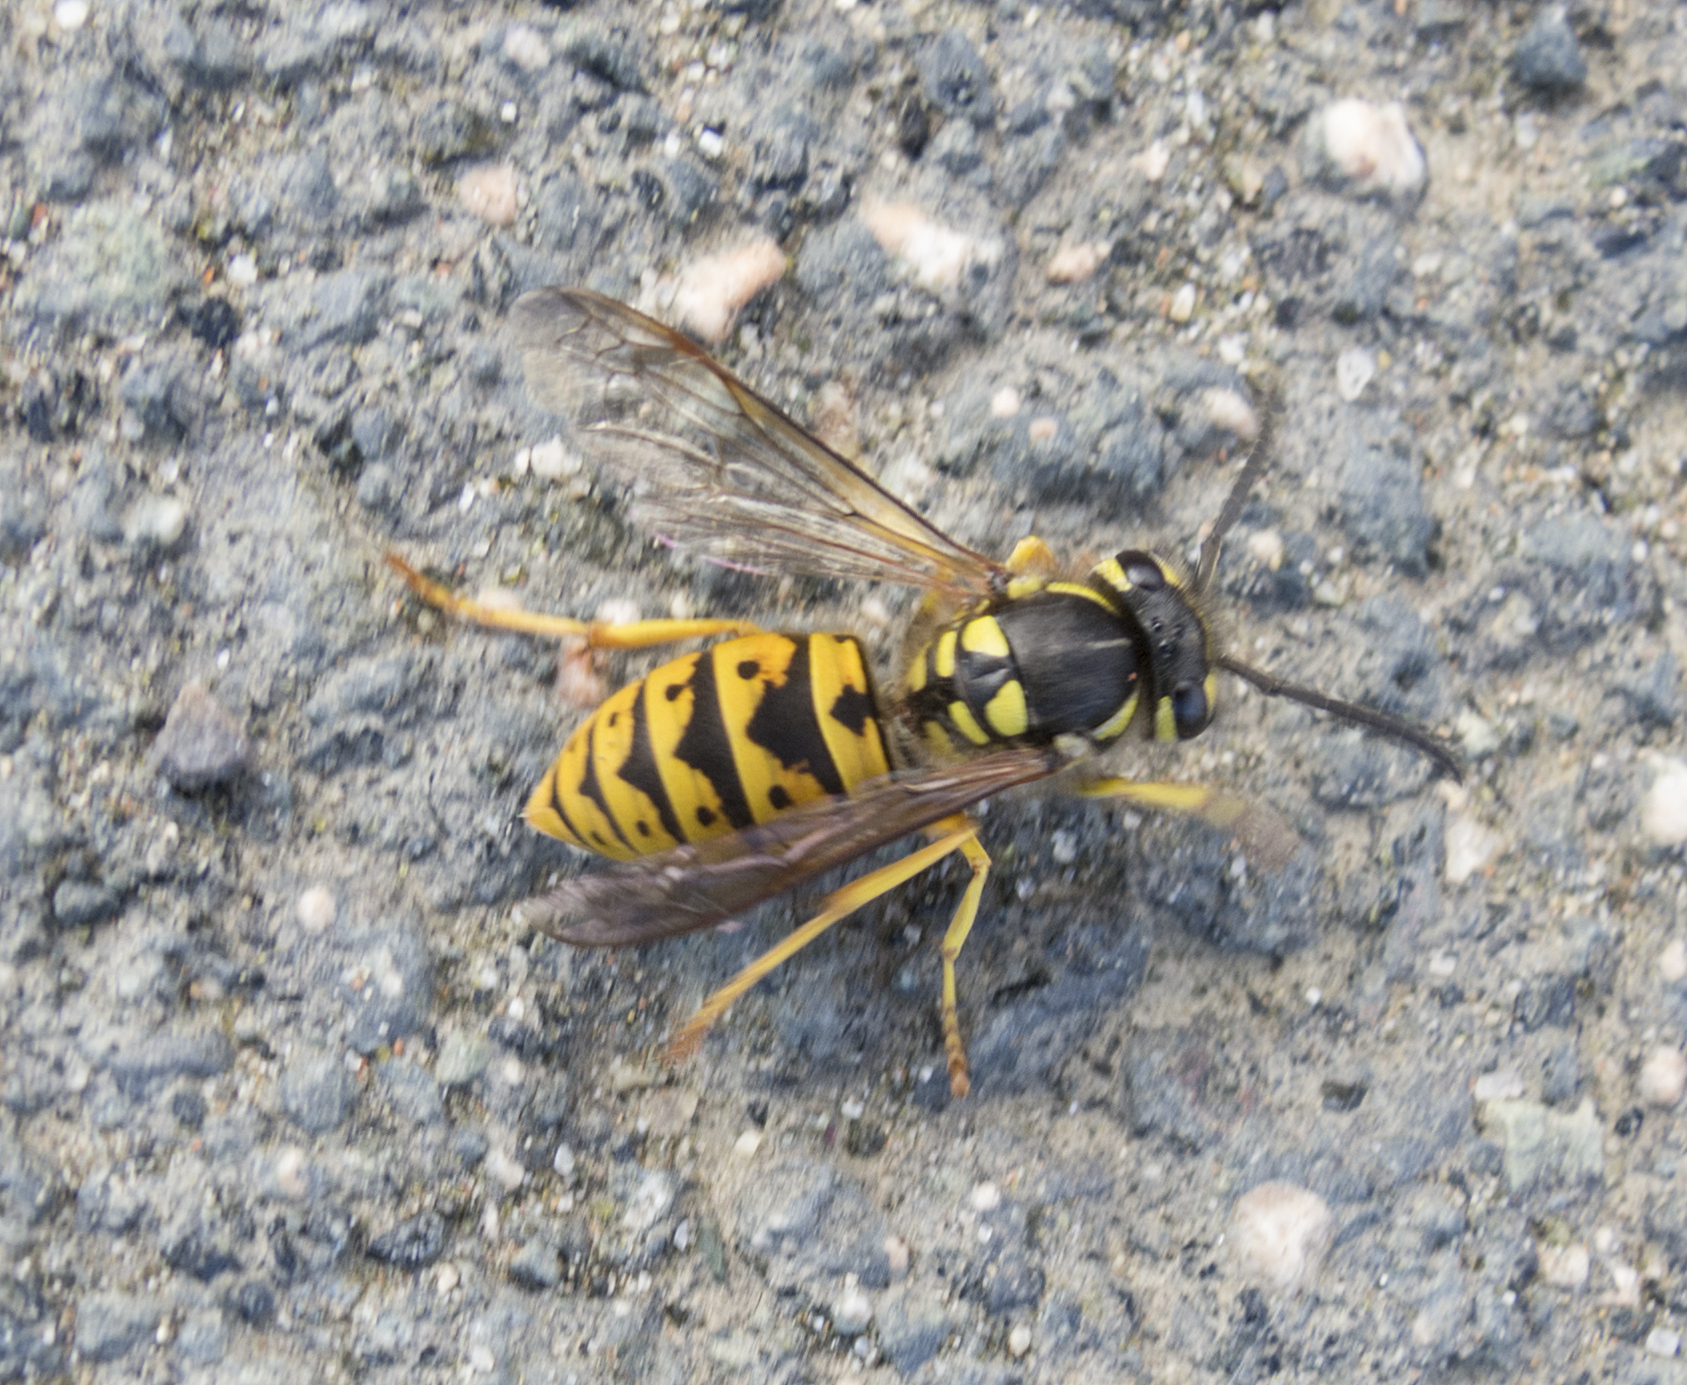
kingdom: Animalia
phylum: Arthropoda
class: Insecta
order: Hymenoptera
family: Vespidae
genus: Vespula
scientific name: Vespula germanica
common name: German wasp
